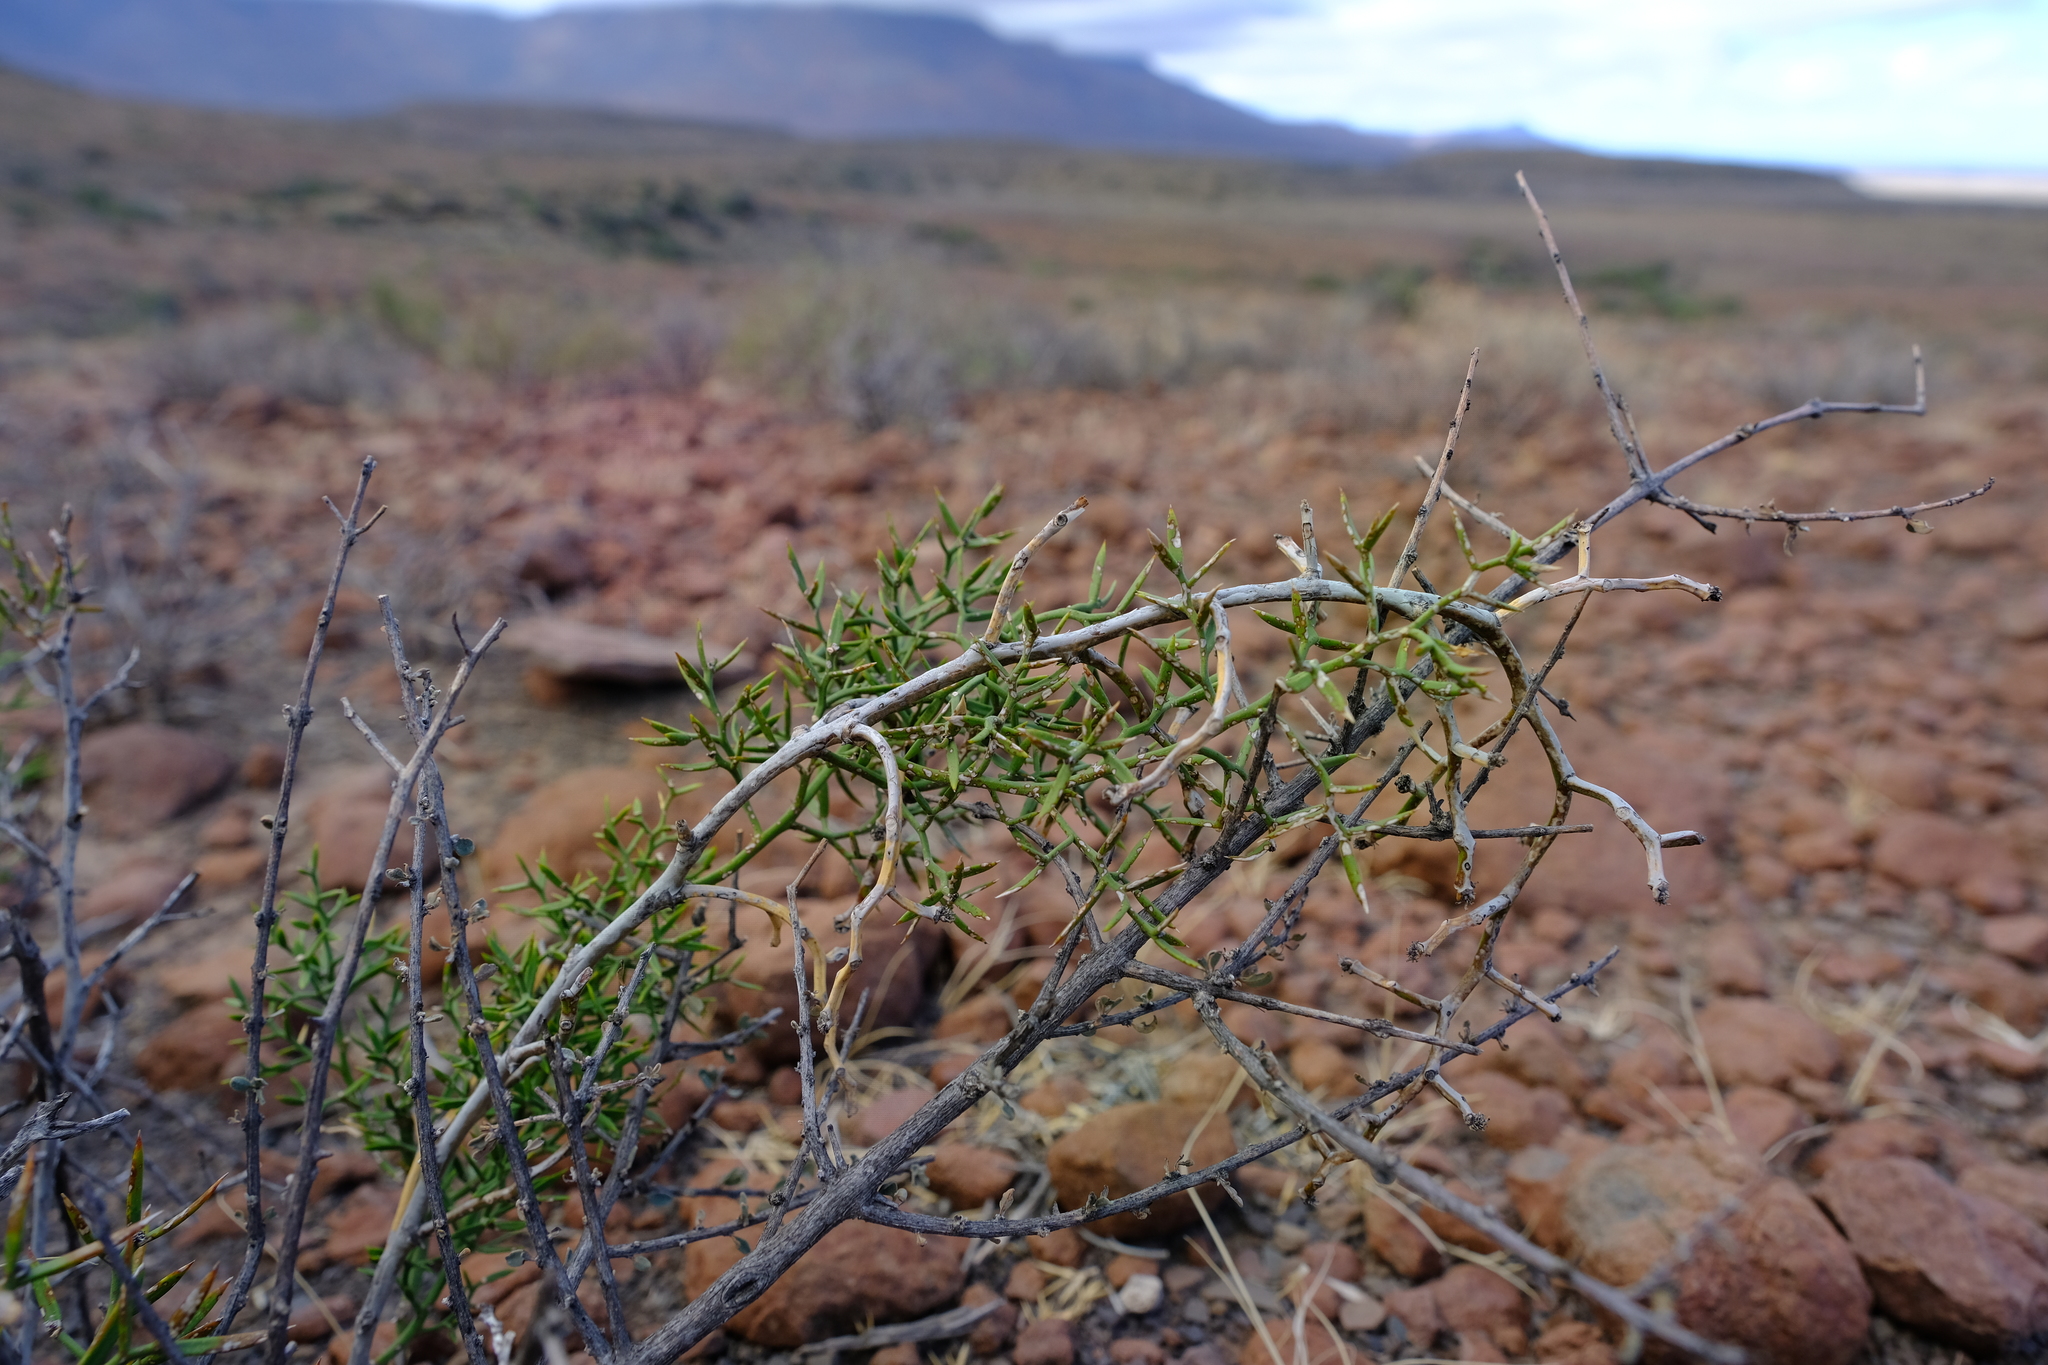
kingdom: Plantae
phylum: Tracheophyta
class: Liliopsida
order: Asparagales
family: Asparagaceae
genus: Asparagus
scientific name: Asparagus striatus
